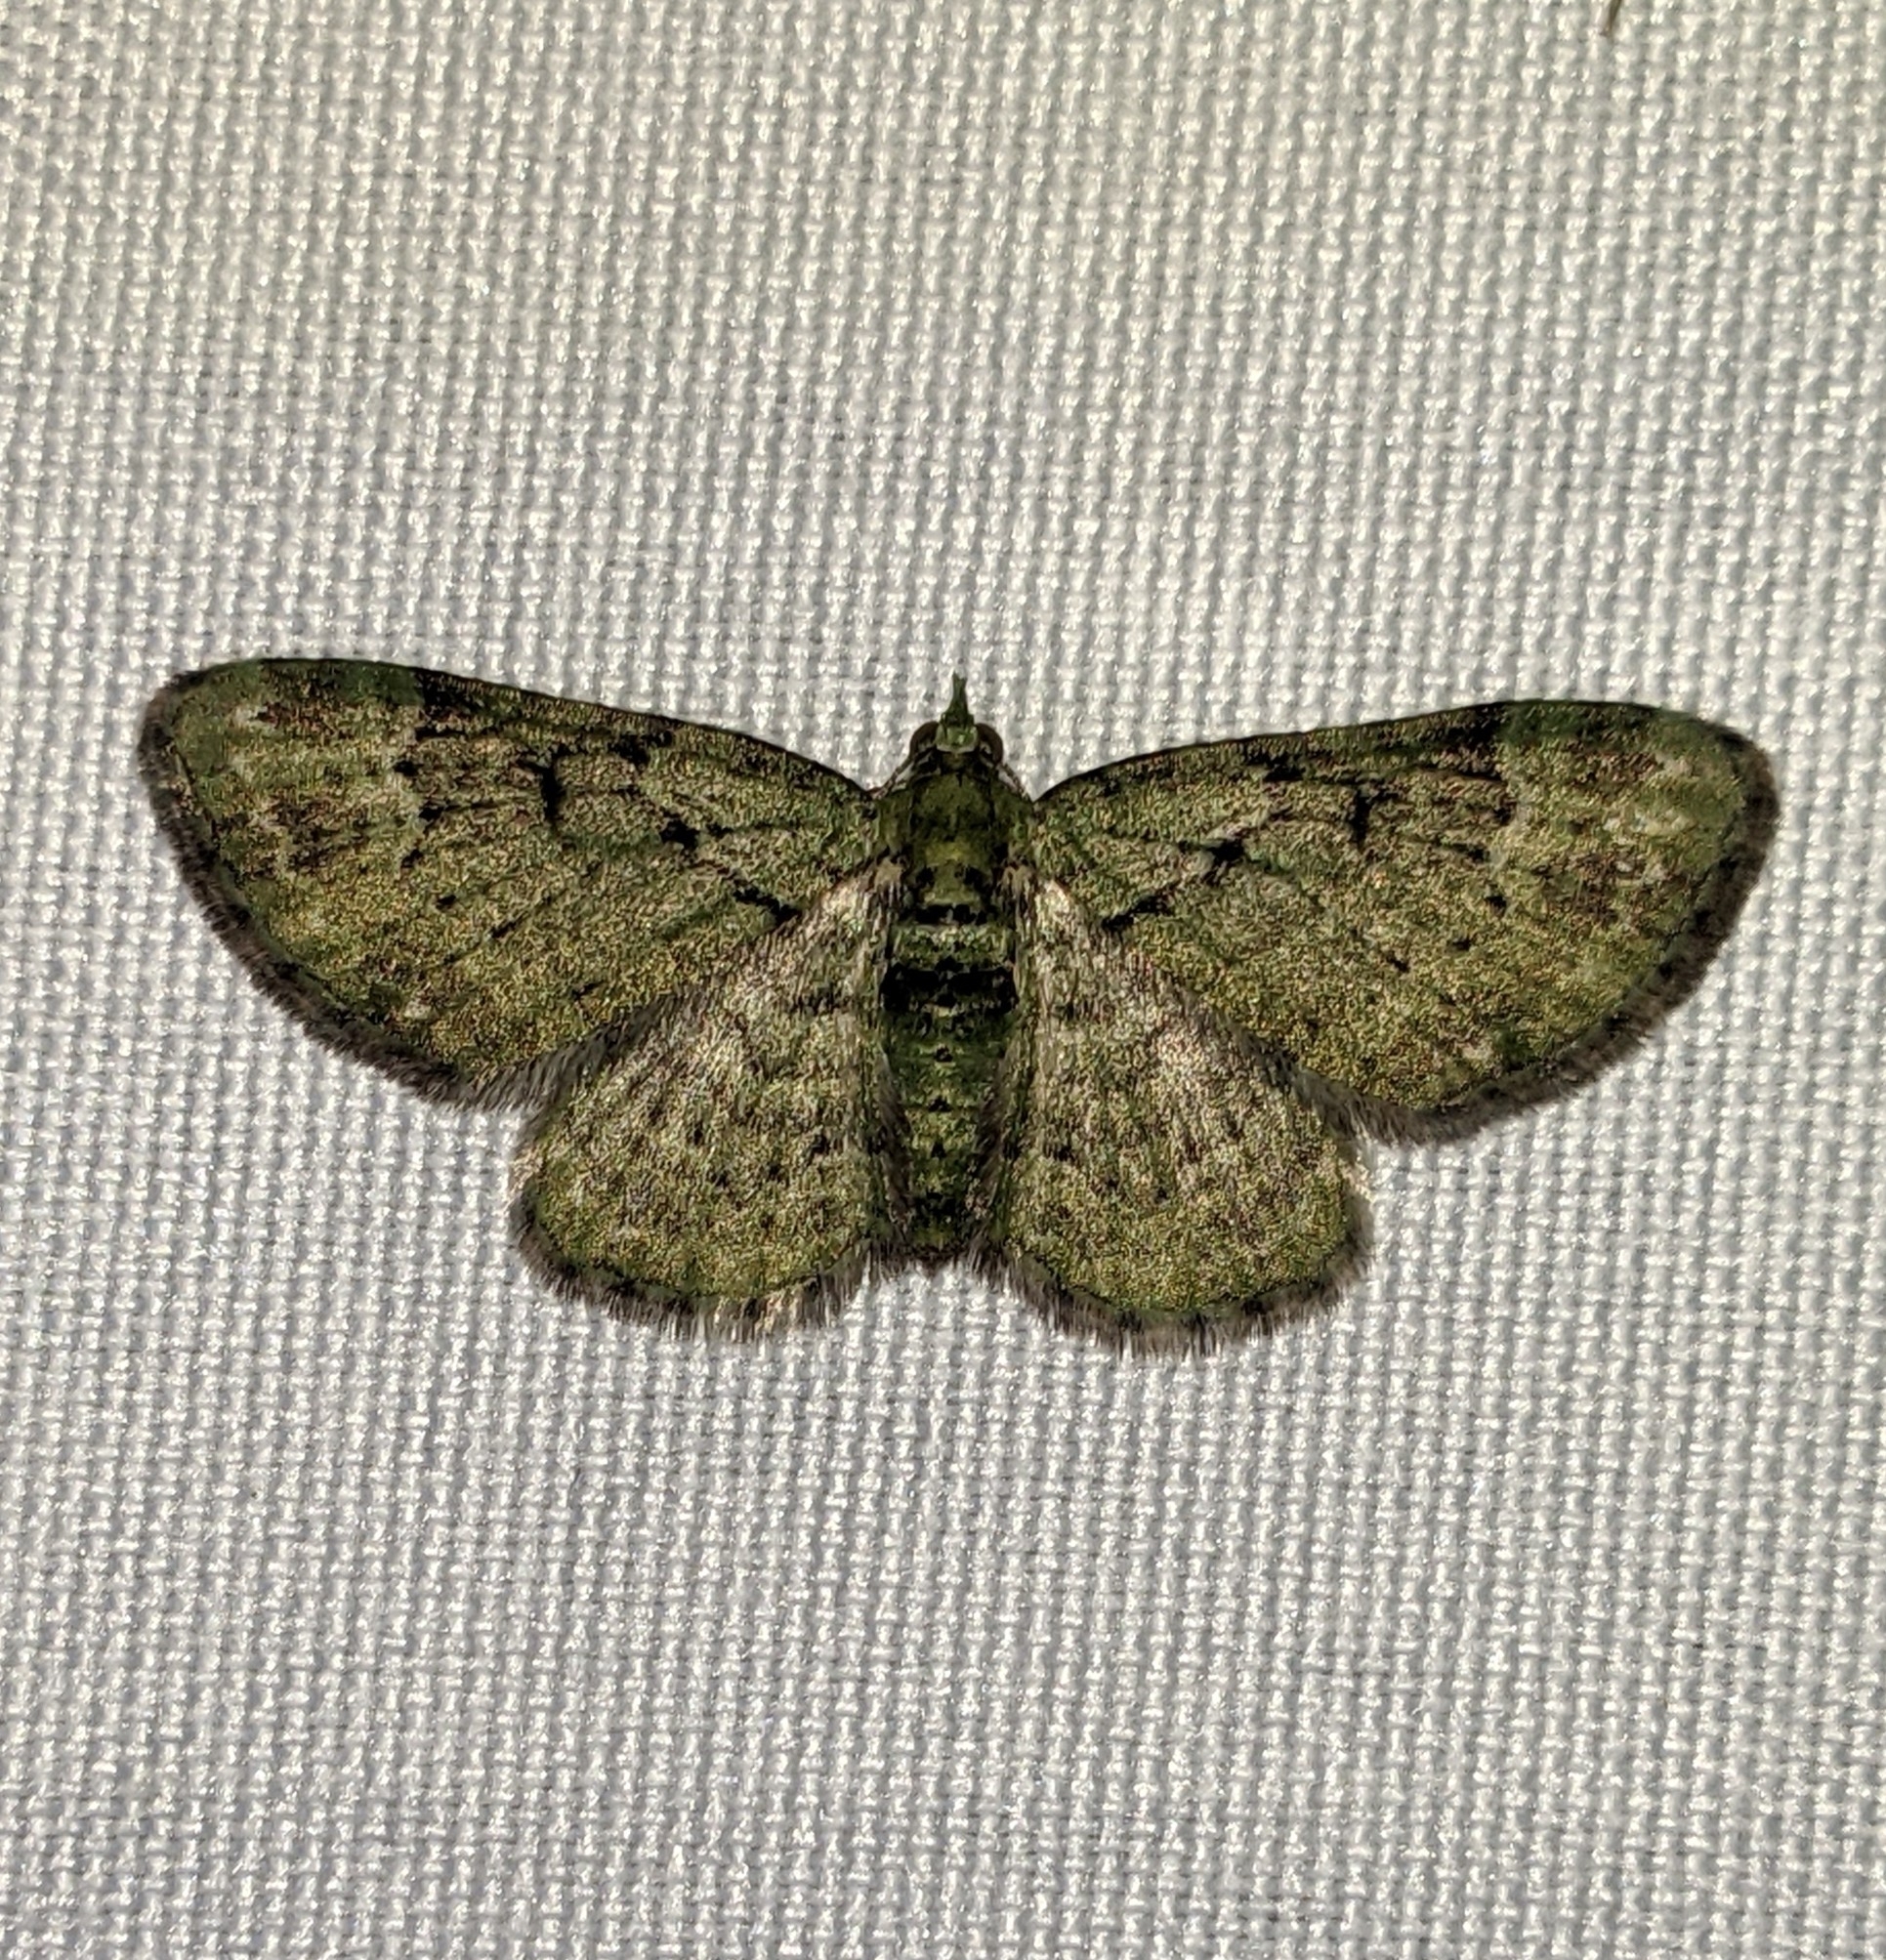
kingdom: Animalia
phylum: Arthropoda
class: Insecta
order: Lepidoptera
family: Geometridae
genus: Pasiphila
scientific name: Pasiphila rectangulata
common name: Green pug
